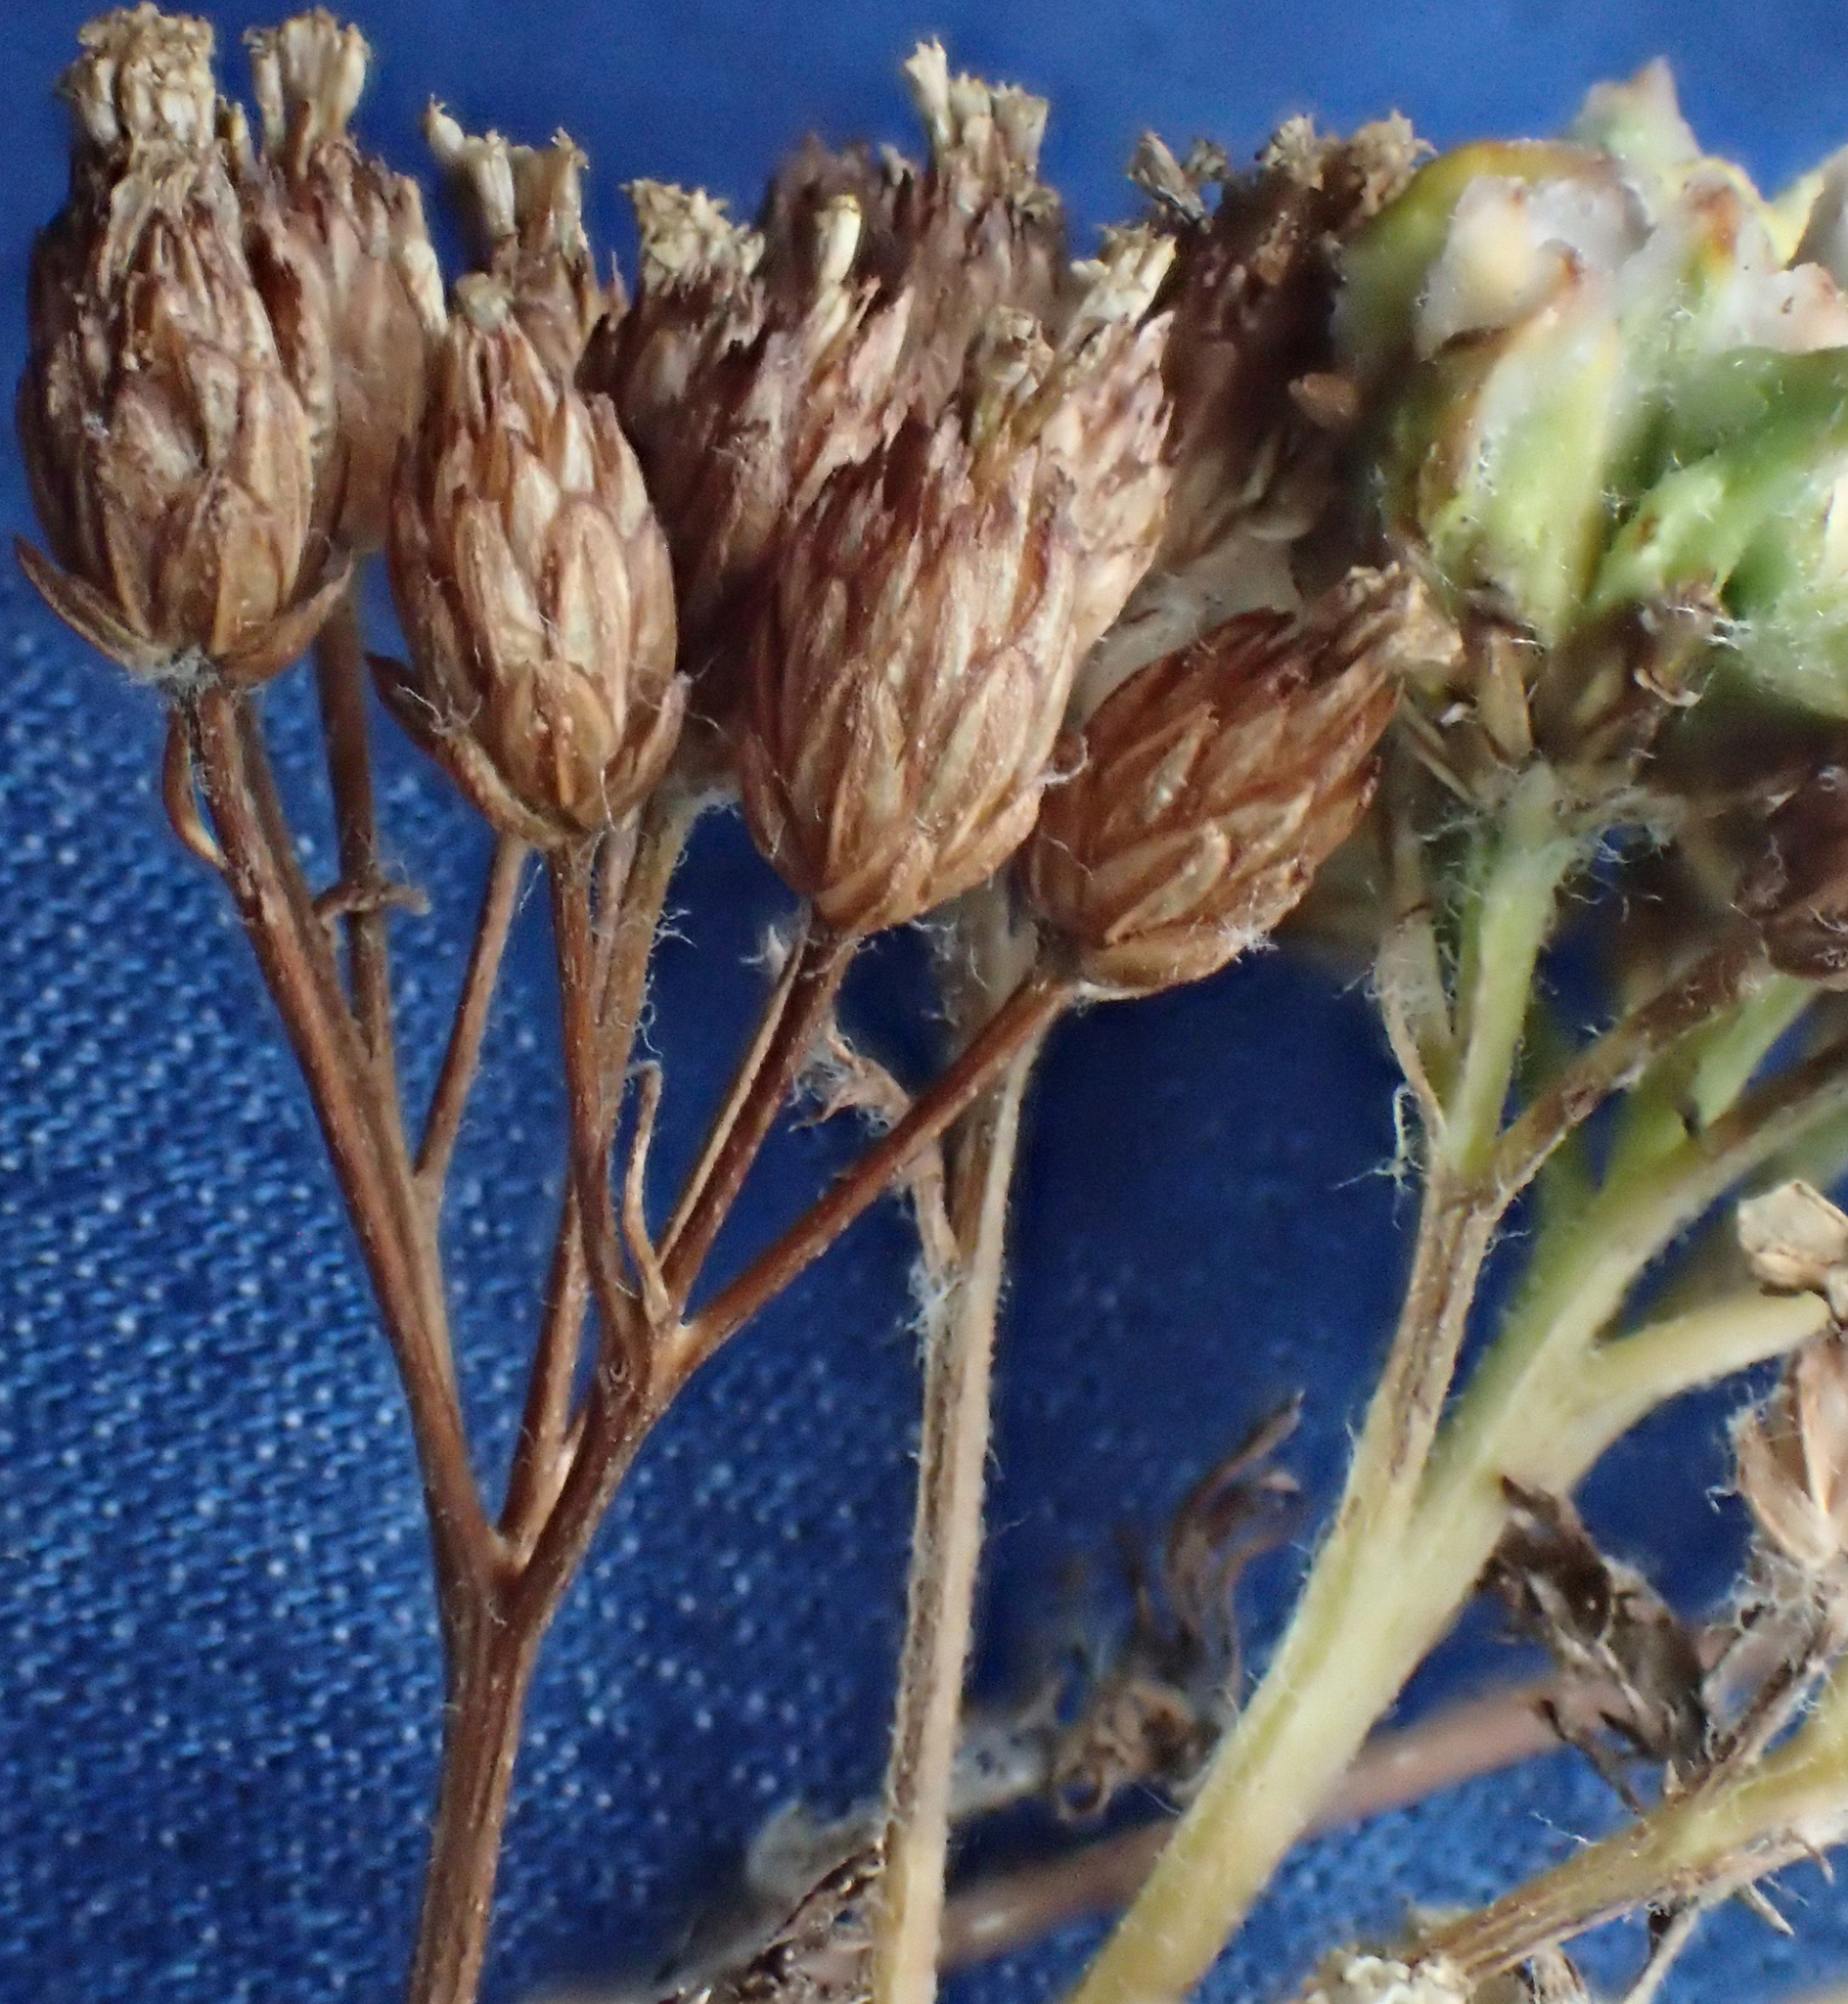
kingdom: Plantae
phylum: Tracheophyta
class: Magnoliopsida
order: Asterales
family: Asteraceae
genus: Achillea
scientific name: Achillea millefolium
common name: Yarrow
